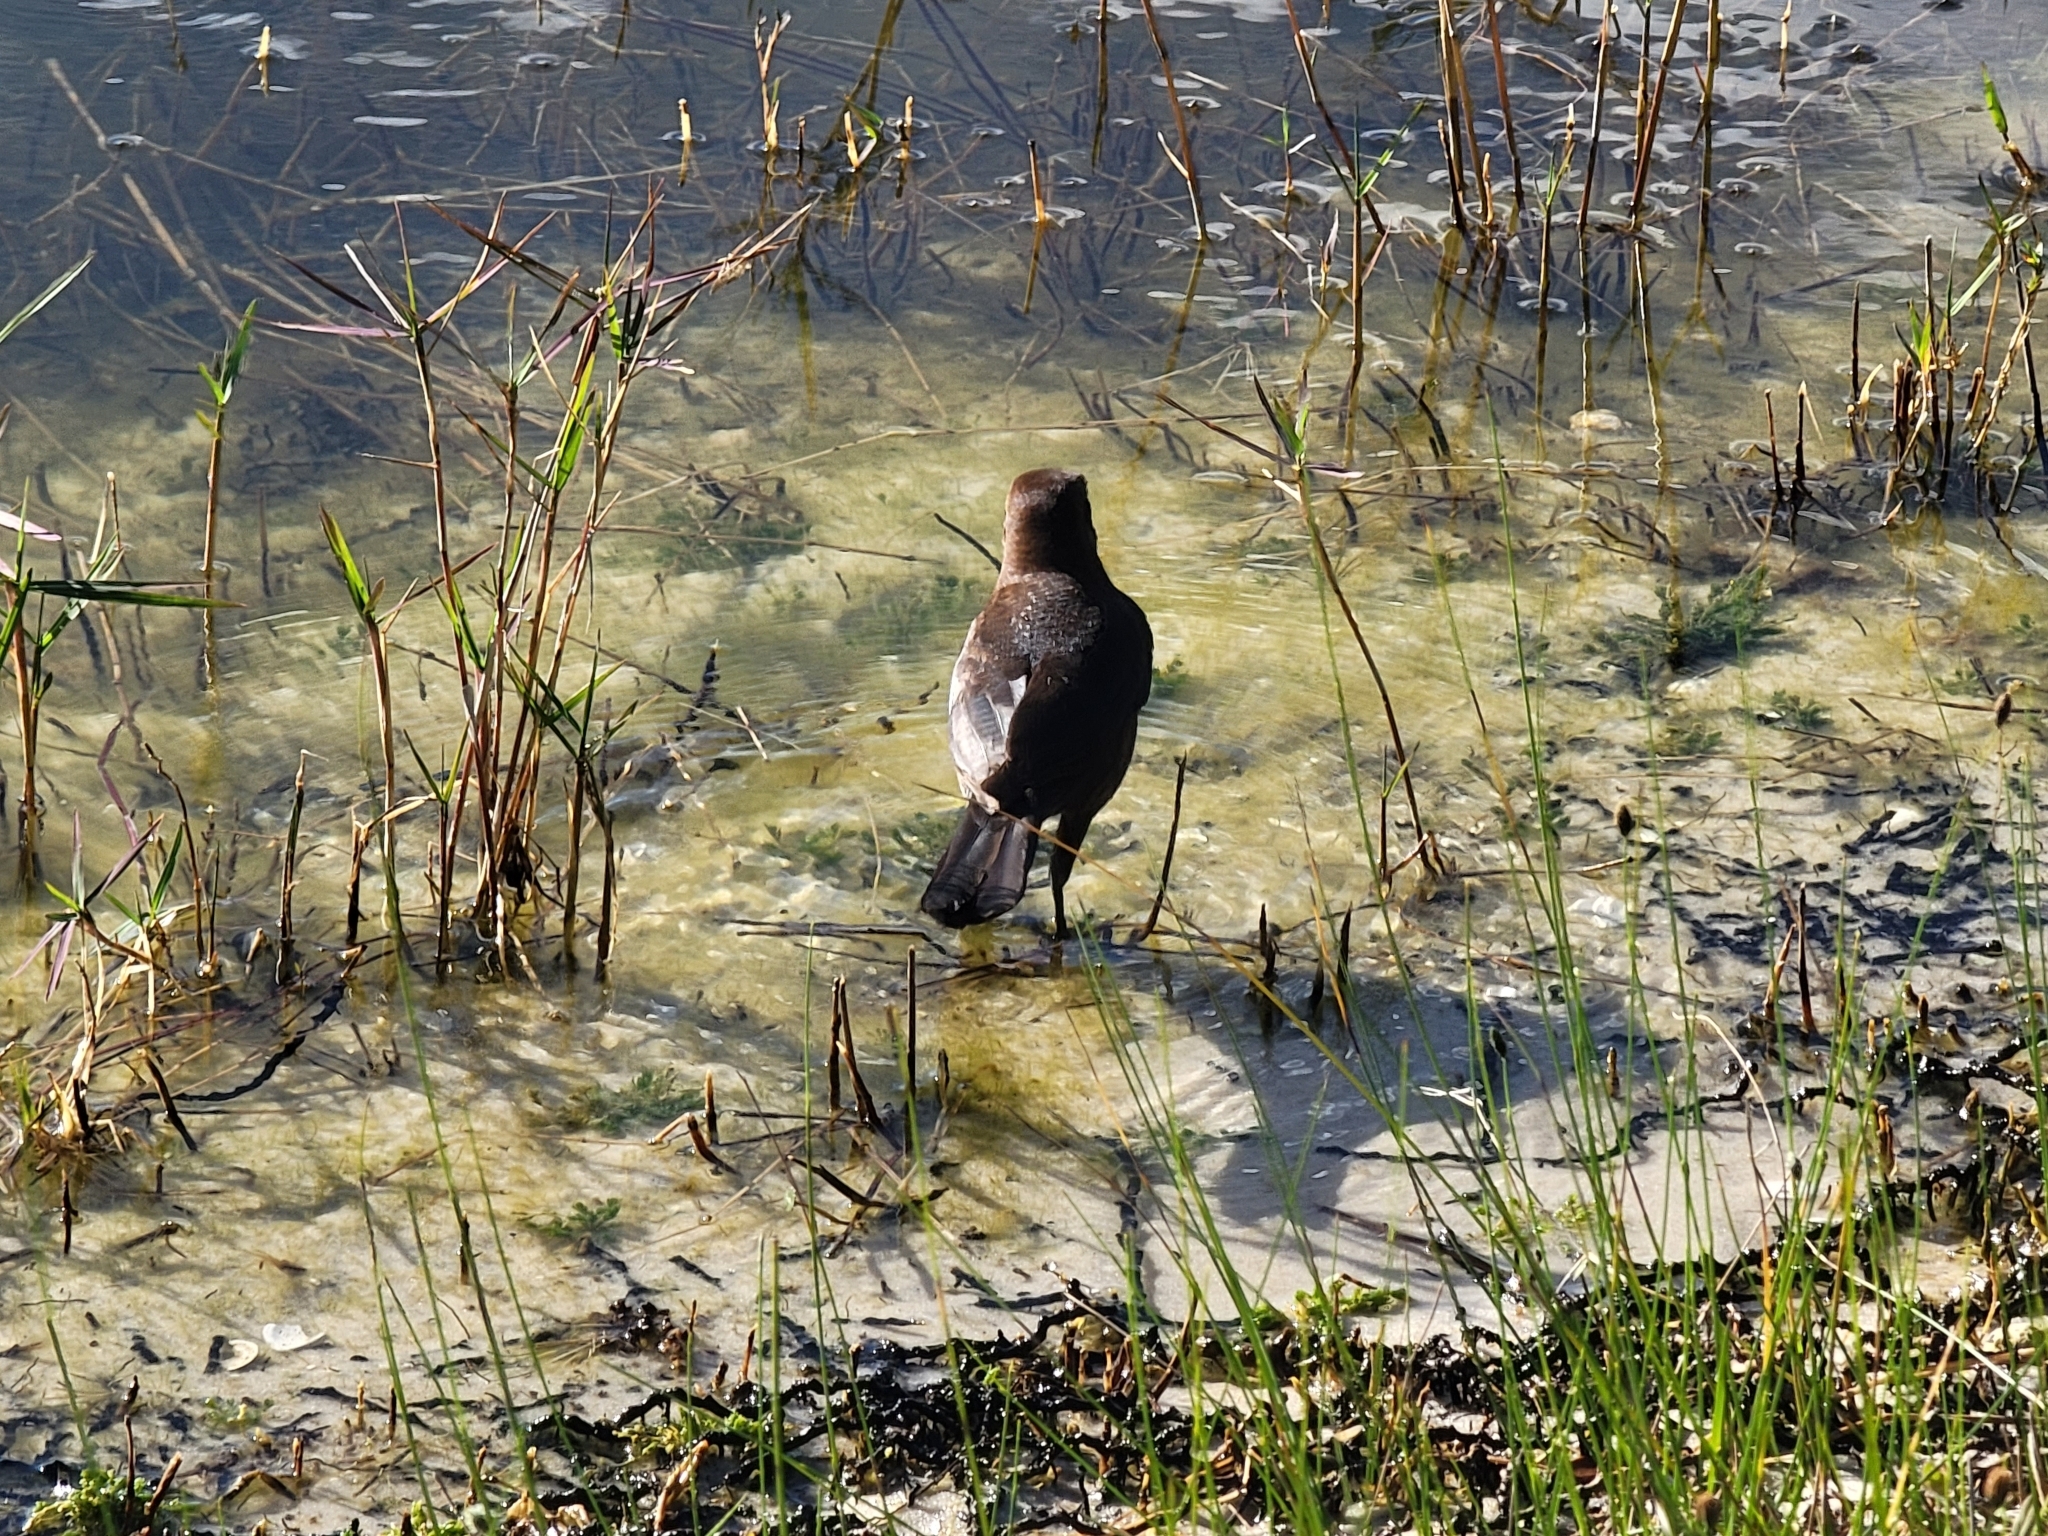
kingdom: Animalia
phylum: Chordata
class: Aves
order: Passeriformes
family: Icteridae
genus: Quiscalus
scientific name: Quiscalus major
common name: Boat-tailed grackle
